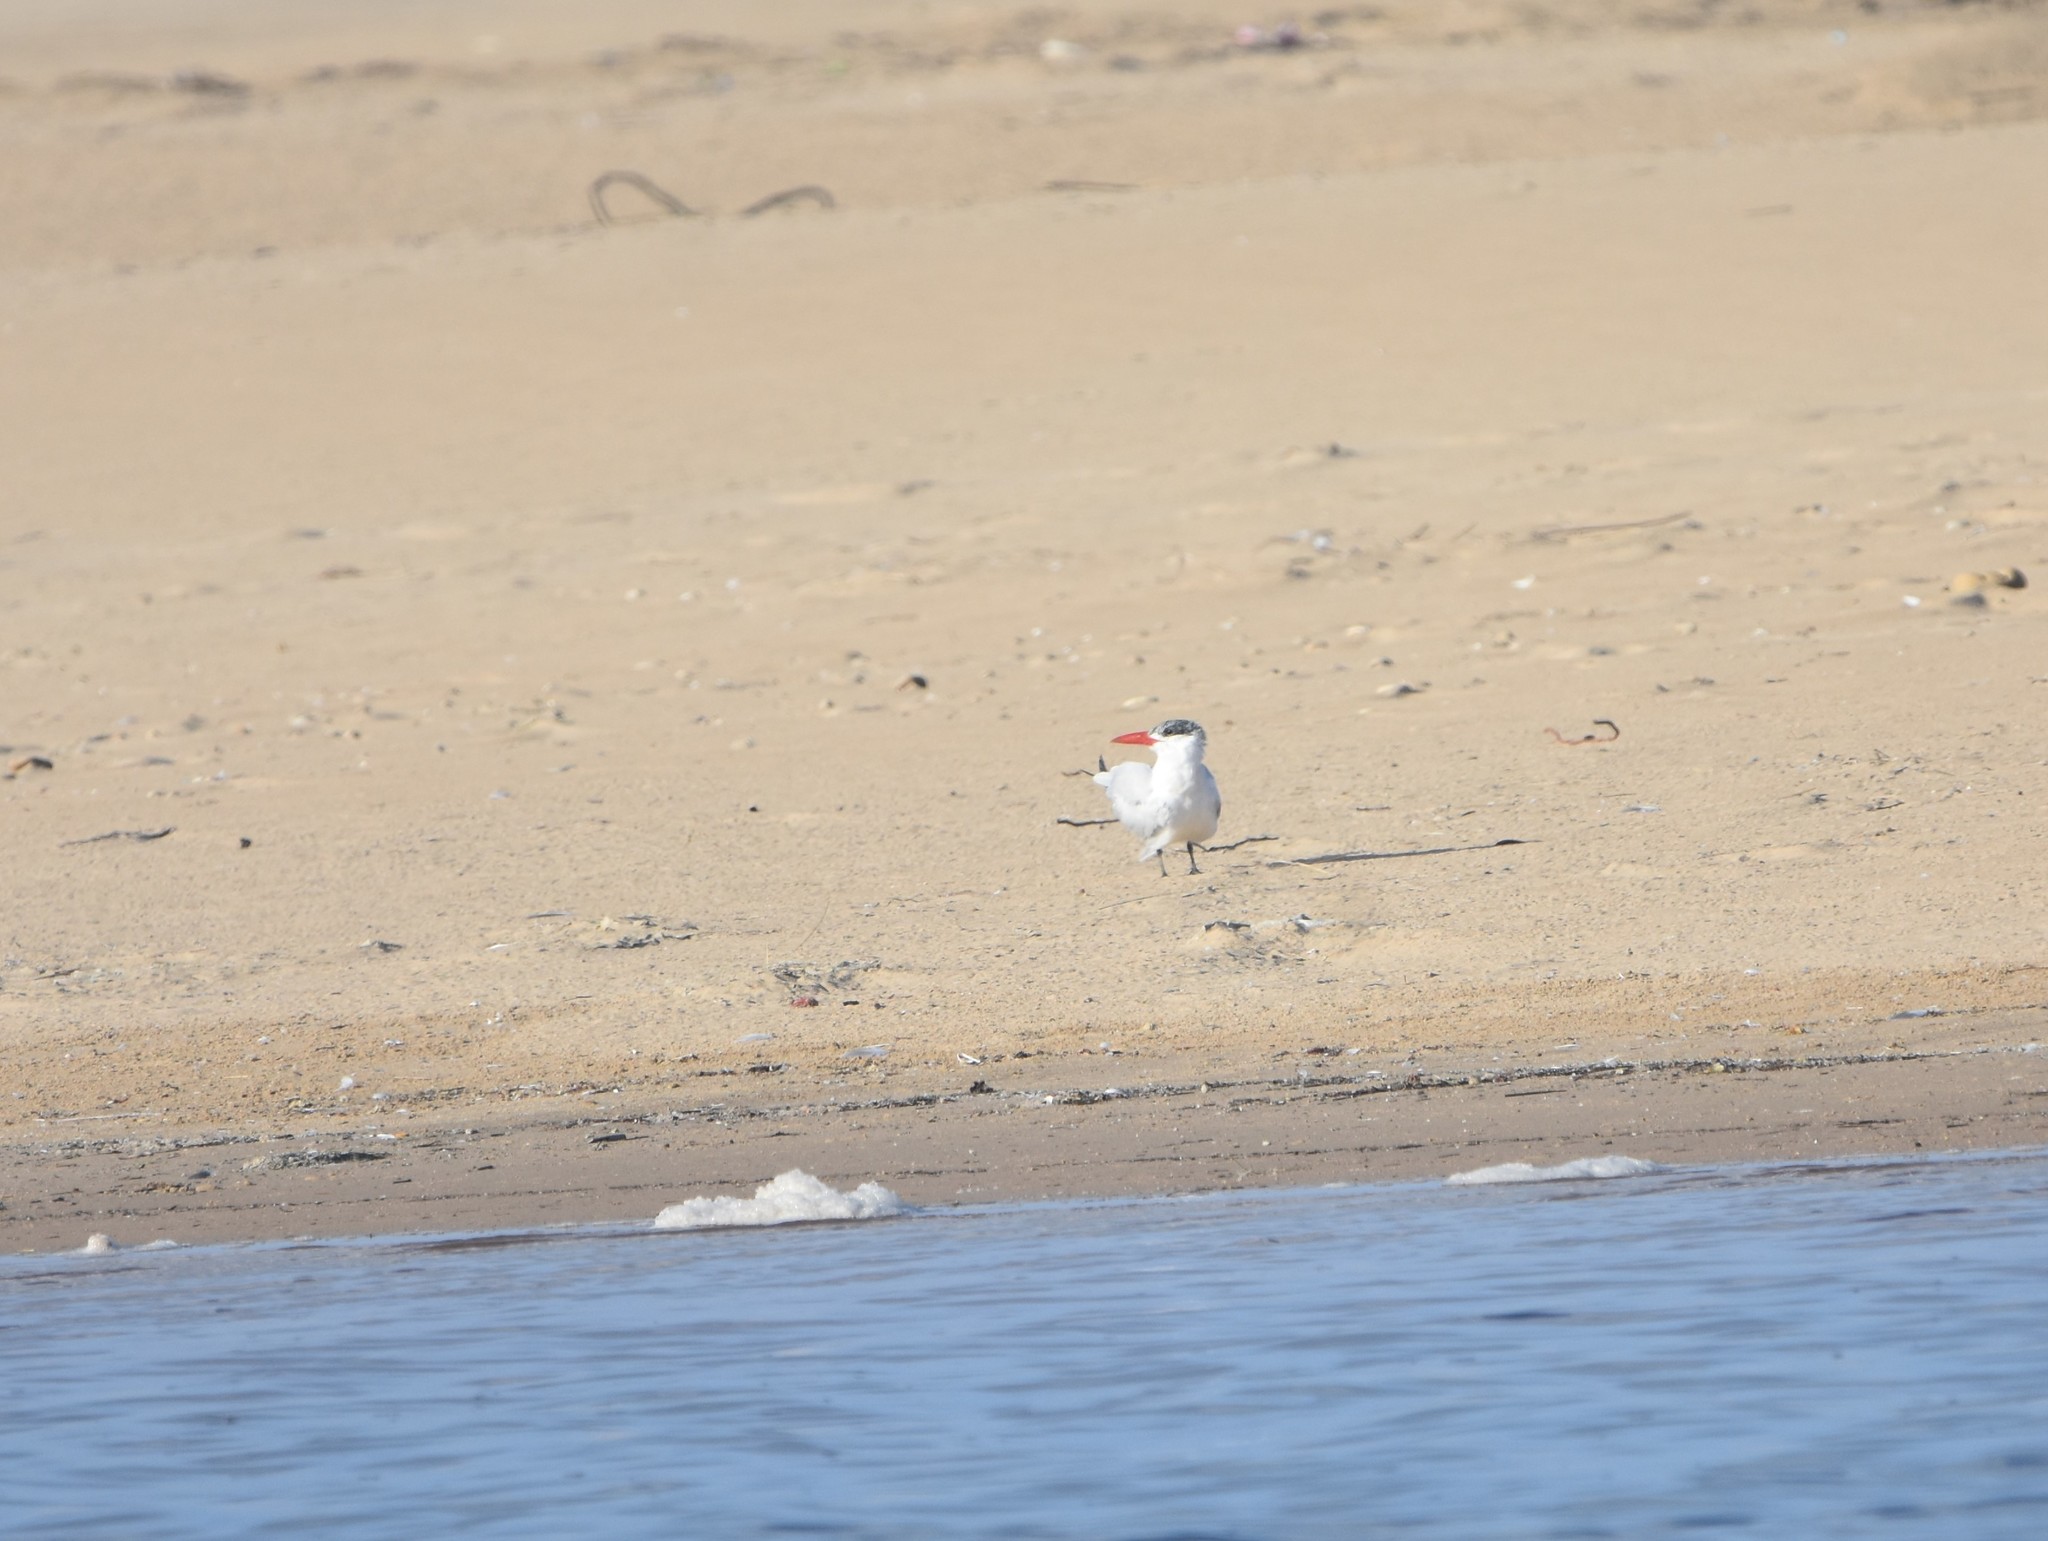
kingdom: Animalia
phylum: Chordata
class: Aves
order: Charadriiformes
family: Laridae
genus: Hydroprogne
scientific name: Hydroprogne caspia
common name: Caspian tern
